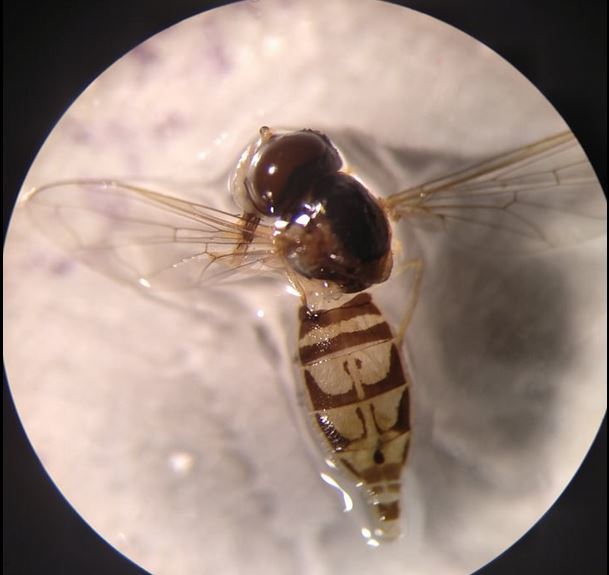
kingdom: Animalia
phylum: Arthropoda
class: Insecta
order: Diptera
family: Syrphidae
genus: Toxomerus
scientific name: Toxomerus marginatus
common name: Syrphid fly
